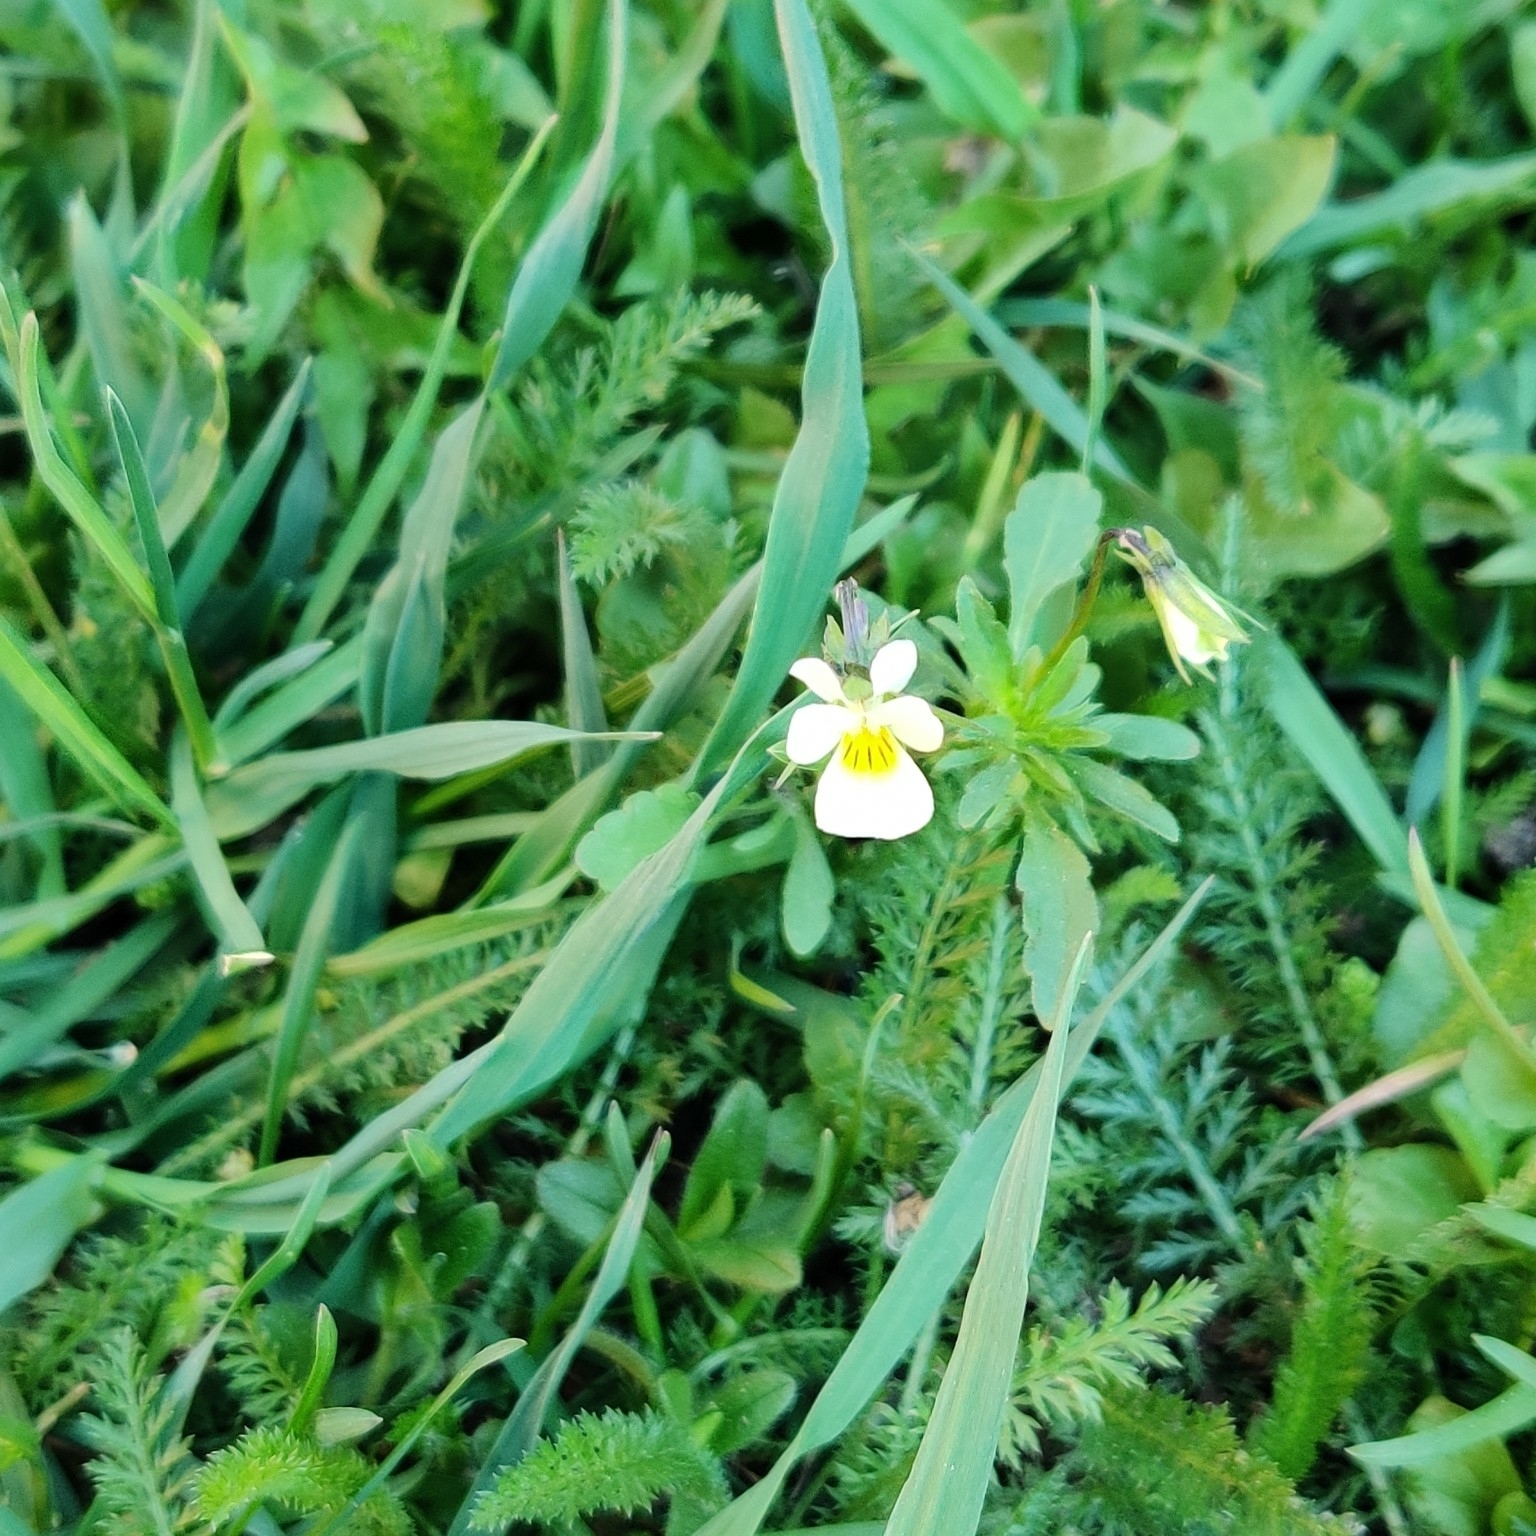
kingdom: Plantae
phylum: Tracheophyta
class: Magnoliopsida
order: Malpighiales
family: Violaceae
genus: Viola
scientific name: Viola arvensis
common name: Field pansy
